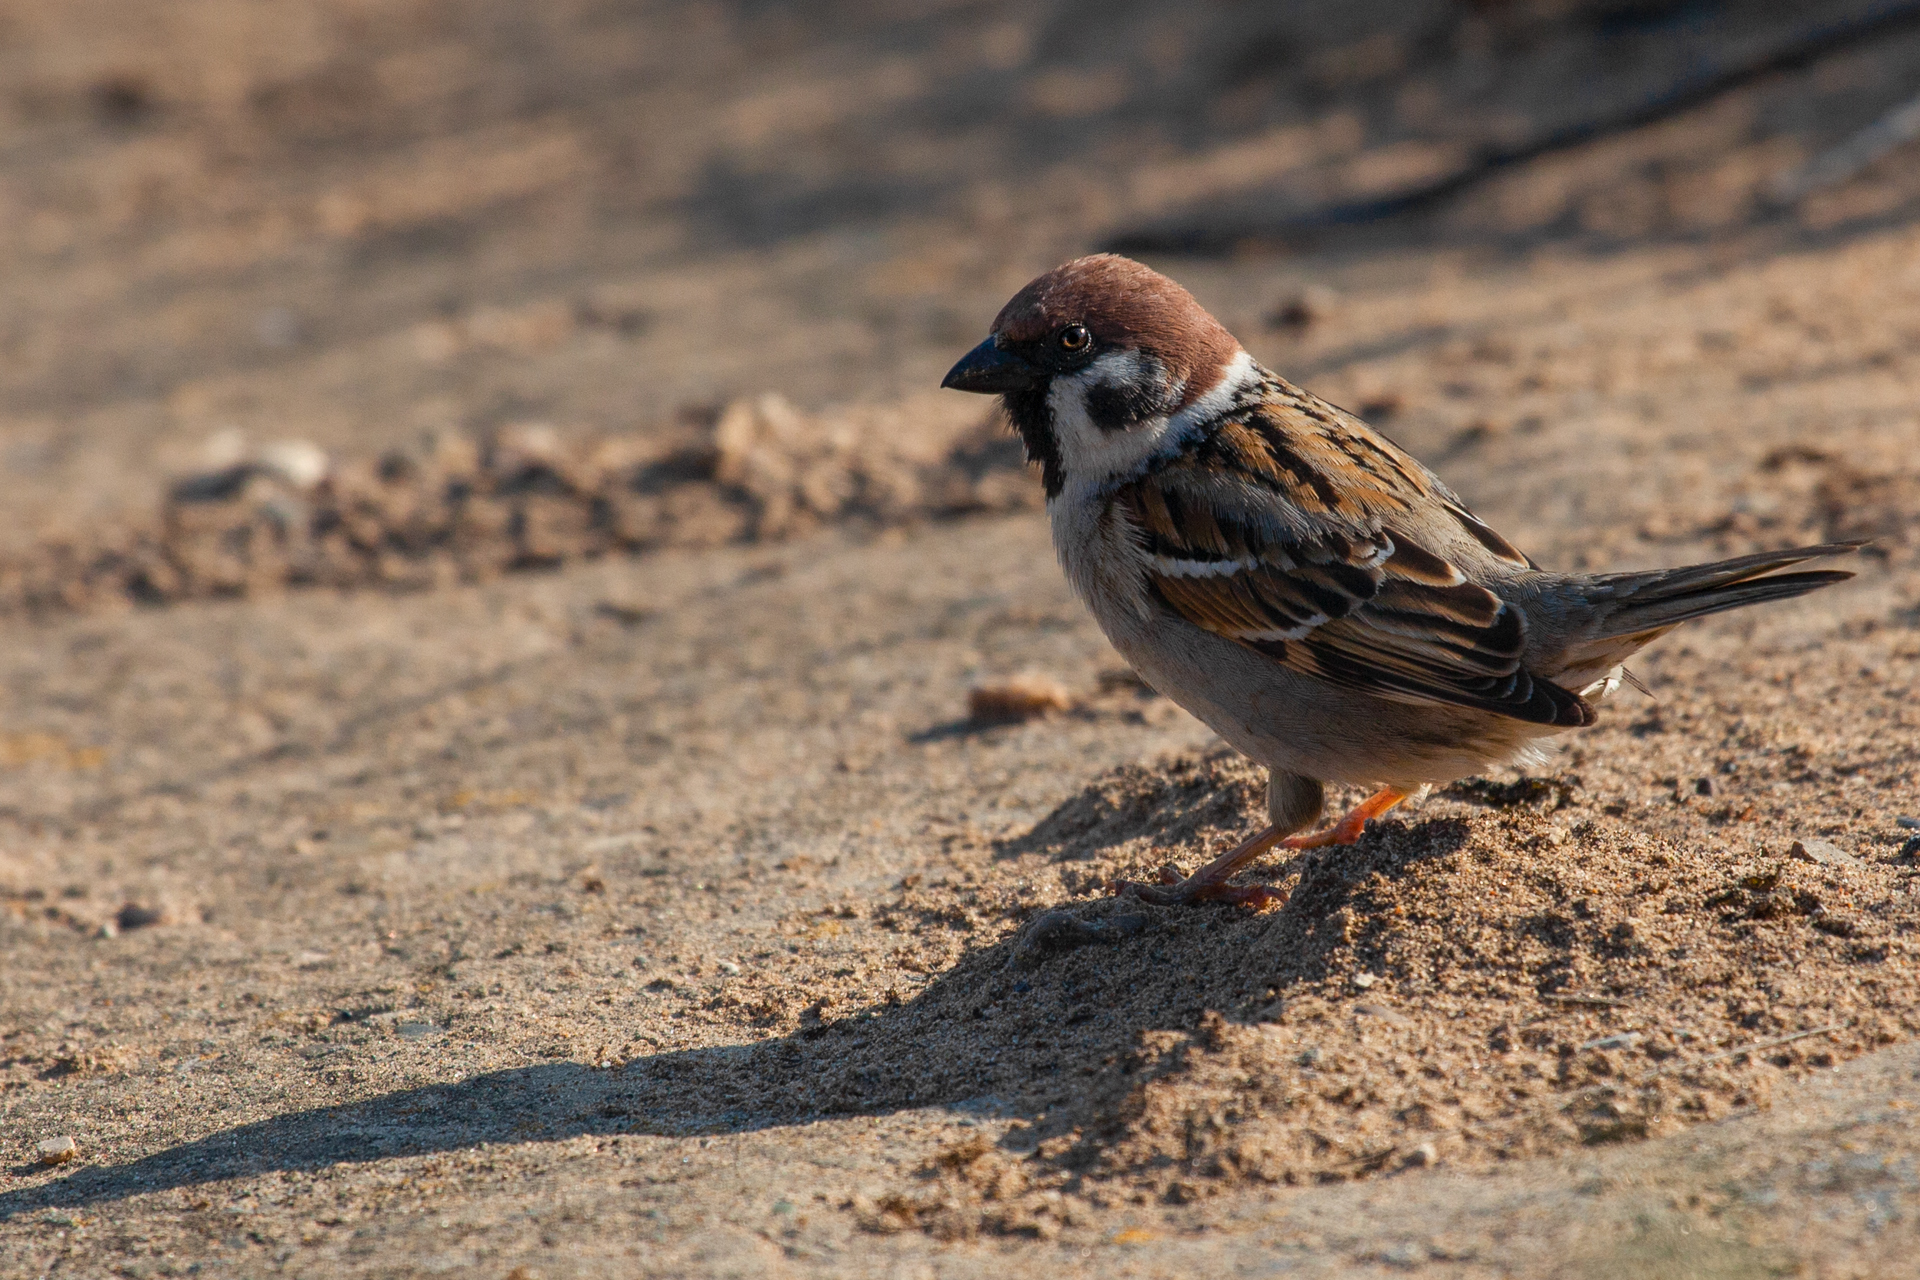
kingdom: Animalia
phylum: Chordata
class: Aves
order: Passeriformes
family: Passeridae
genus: Passer
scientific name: Passer montanus
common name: Eurasian tree sparrow
